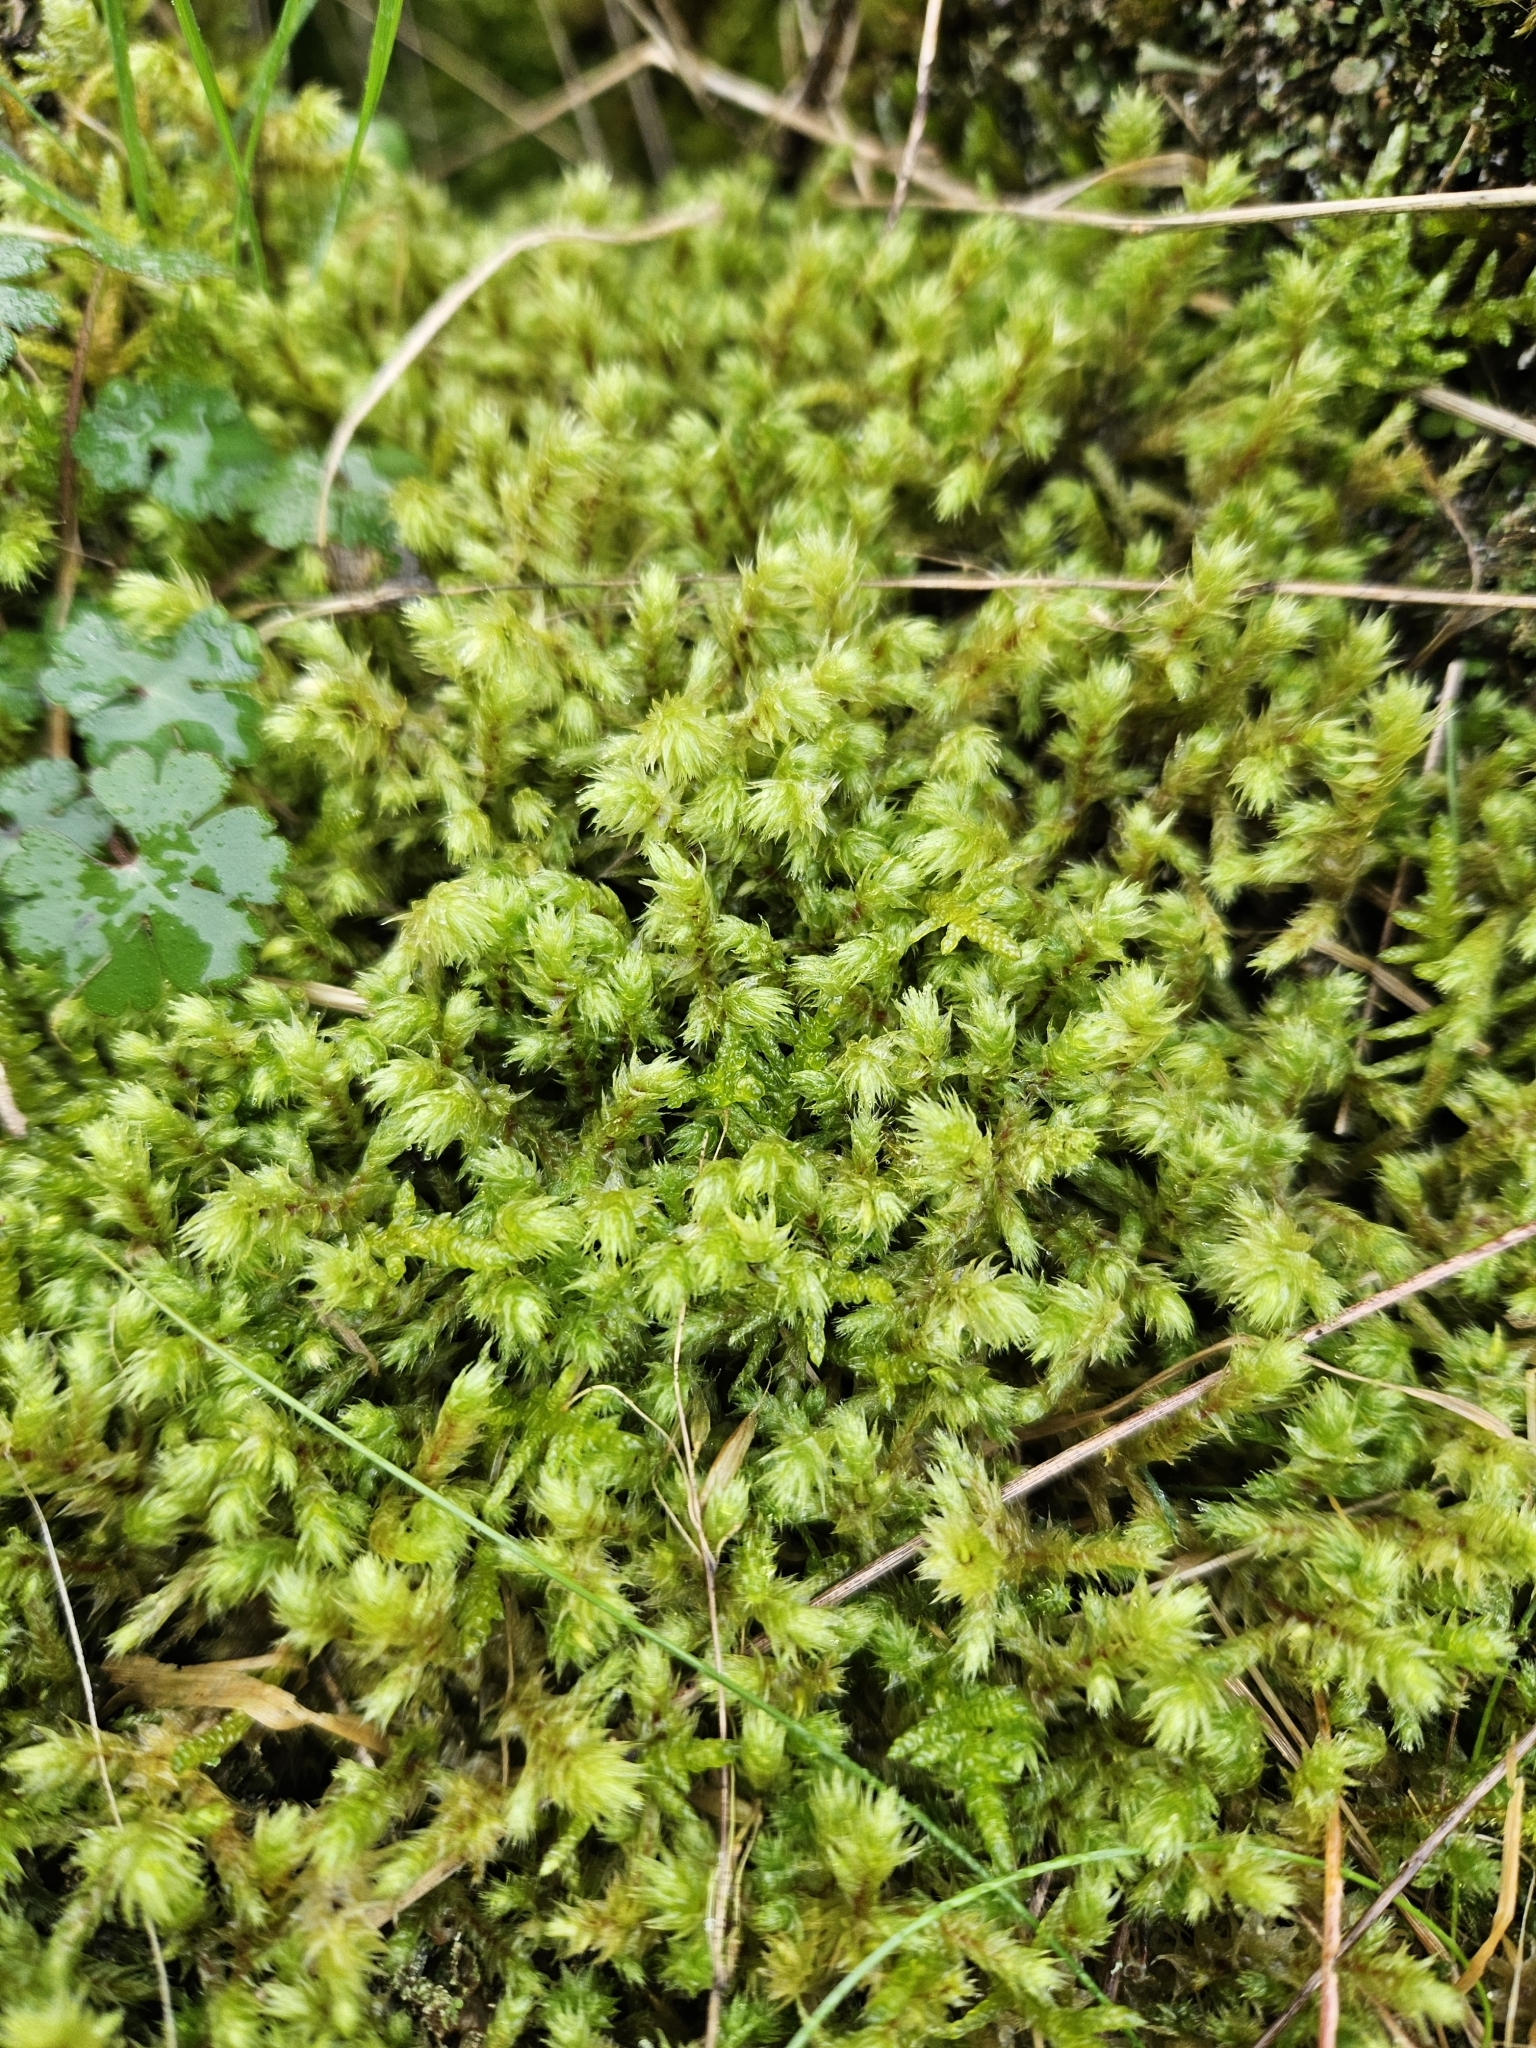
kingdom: Plantae
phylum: Bryophyta
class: Bryopsida
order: Hypnales
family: Hylocomiaceae
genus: Hylocomiadelphus
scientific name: Hylocomiadelphus triquetrus
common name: Rough goose neck moss
